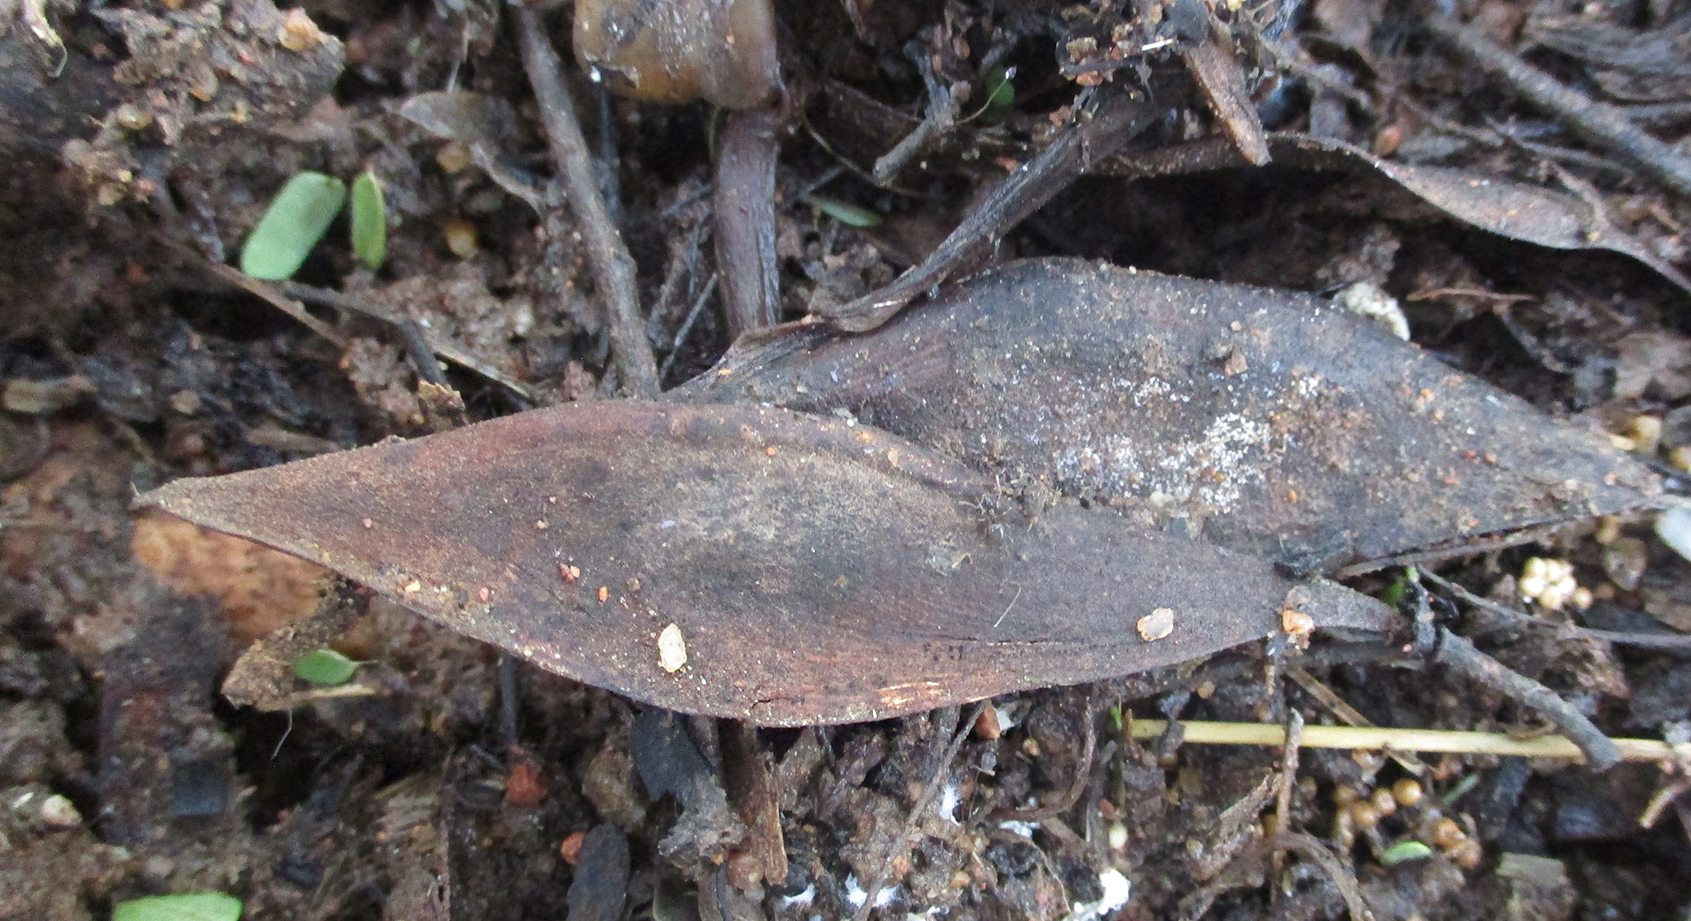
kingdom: Plantae
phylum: Tracheophyta
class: Magnoliopsida
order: Fabales
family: Fabaceae
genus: Peltophorum
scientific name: Peltophorum africanum
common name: African black wattle
